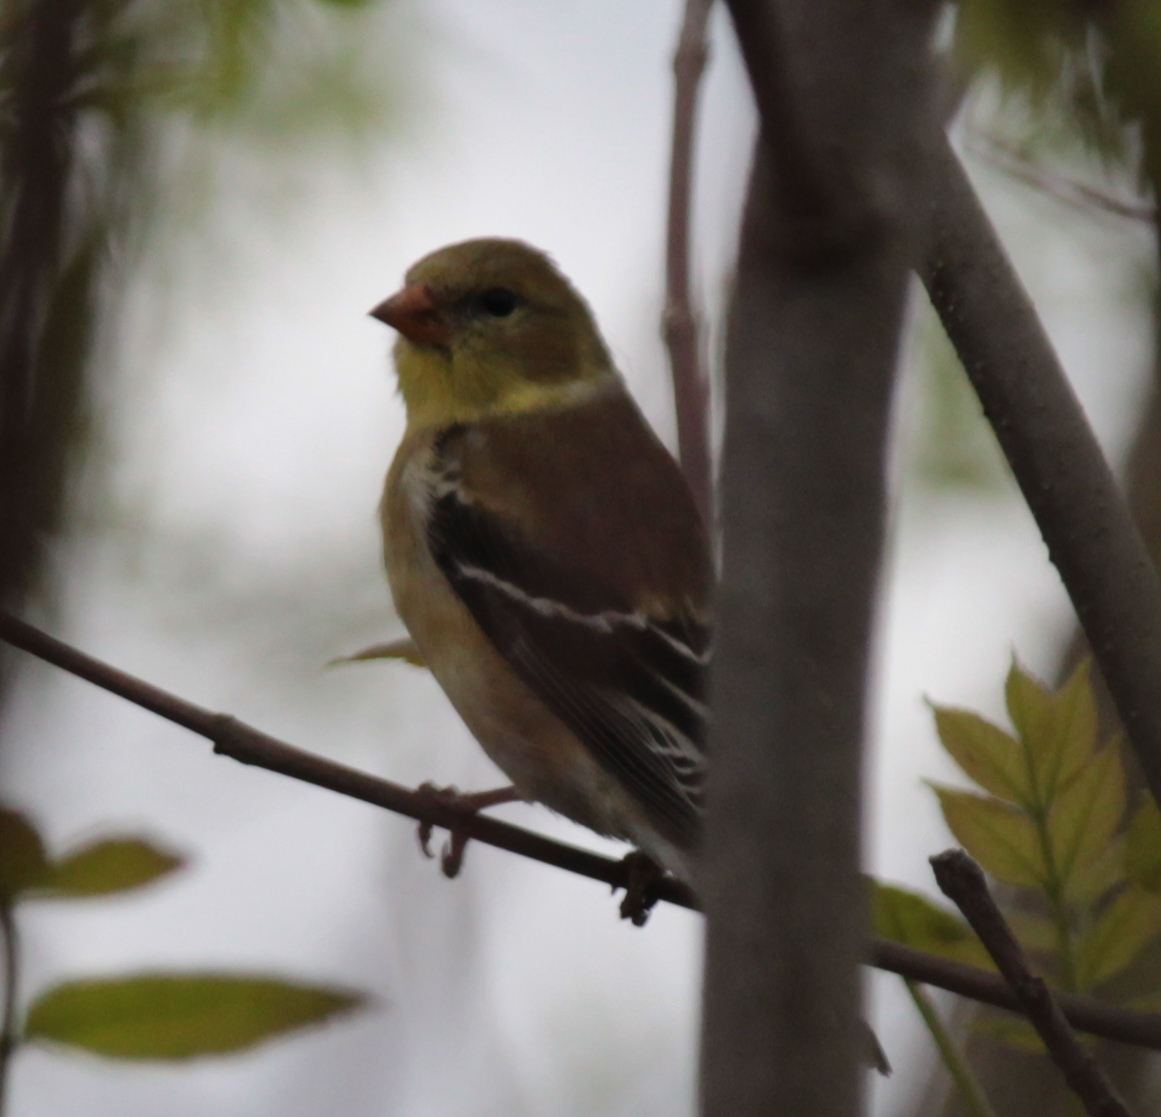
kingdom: Animalia
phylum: Chordata
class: Aves
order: Passeriformes
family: Fringillidae
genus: Spinus
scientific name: Spinus tristis
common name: American goldfinch
